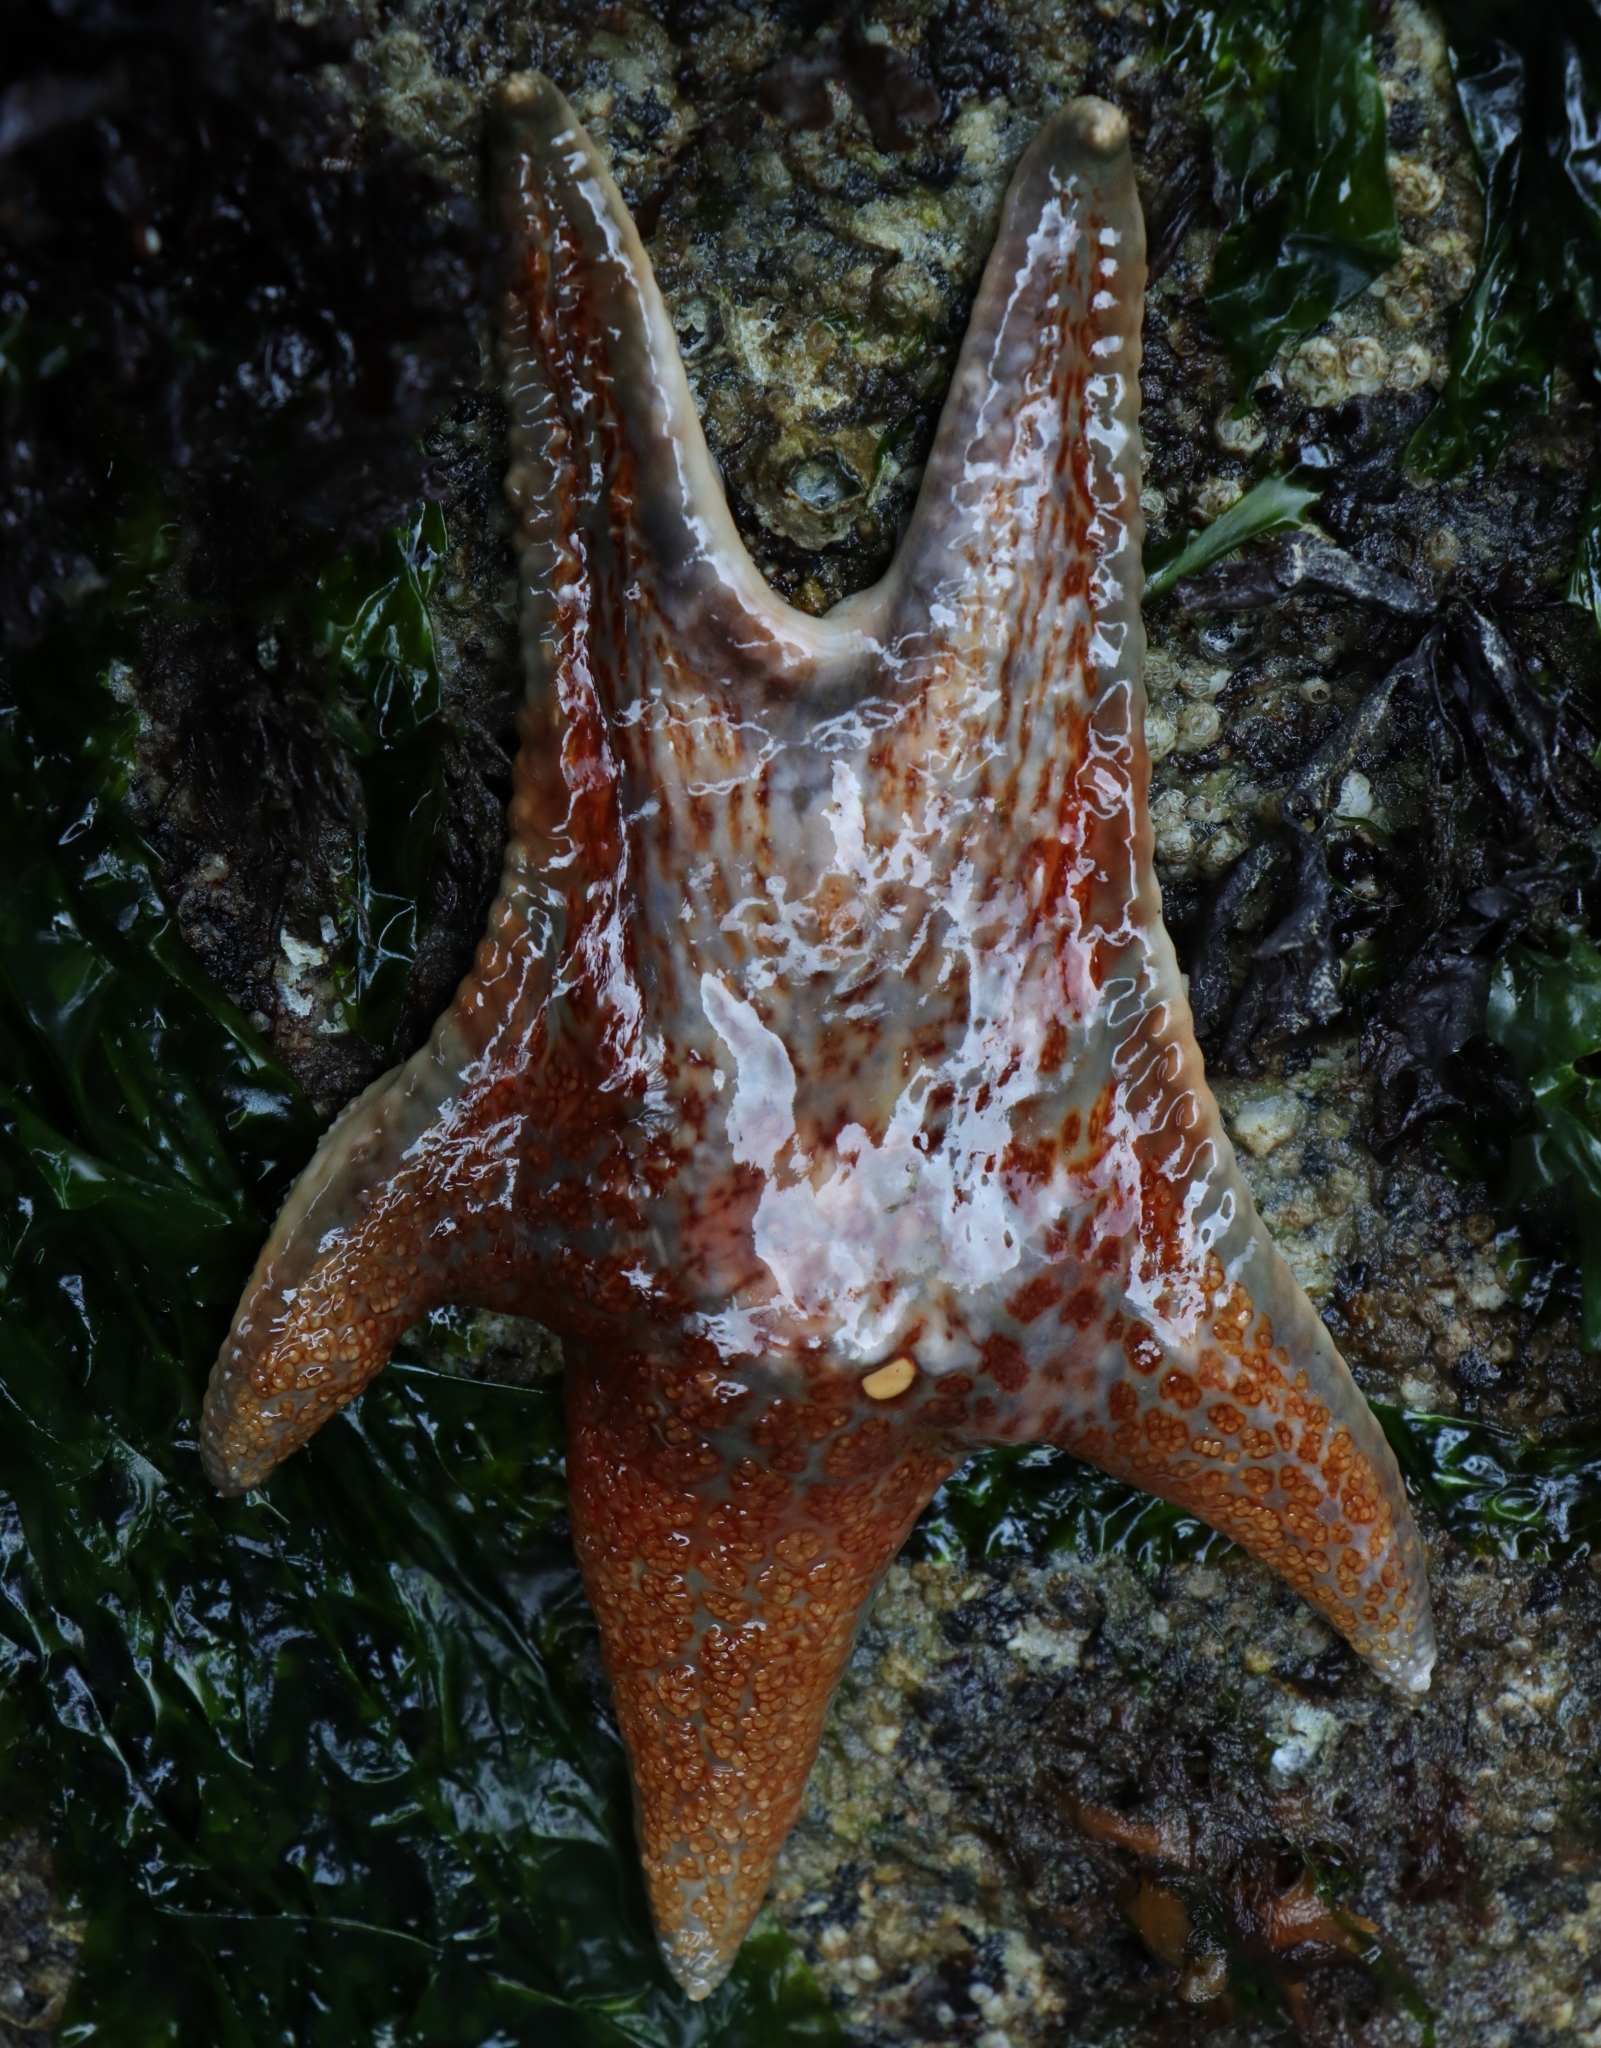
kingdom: Animalia
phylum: Echinodermata
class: Asteroidea
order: Valvatida
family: Asteropseidae
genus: Dermasterias
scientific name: Dermasterias imbricata
